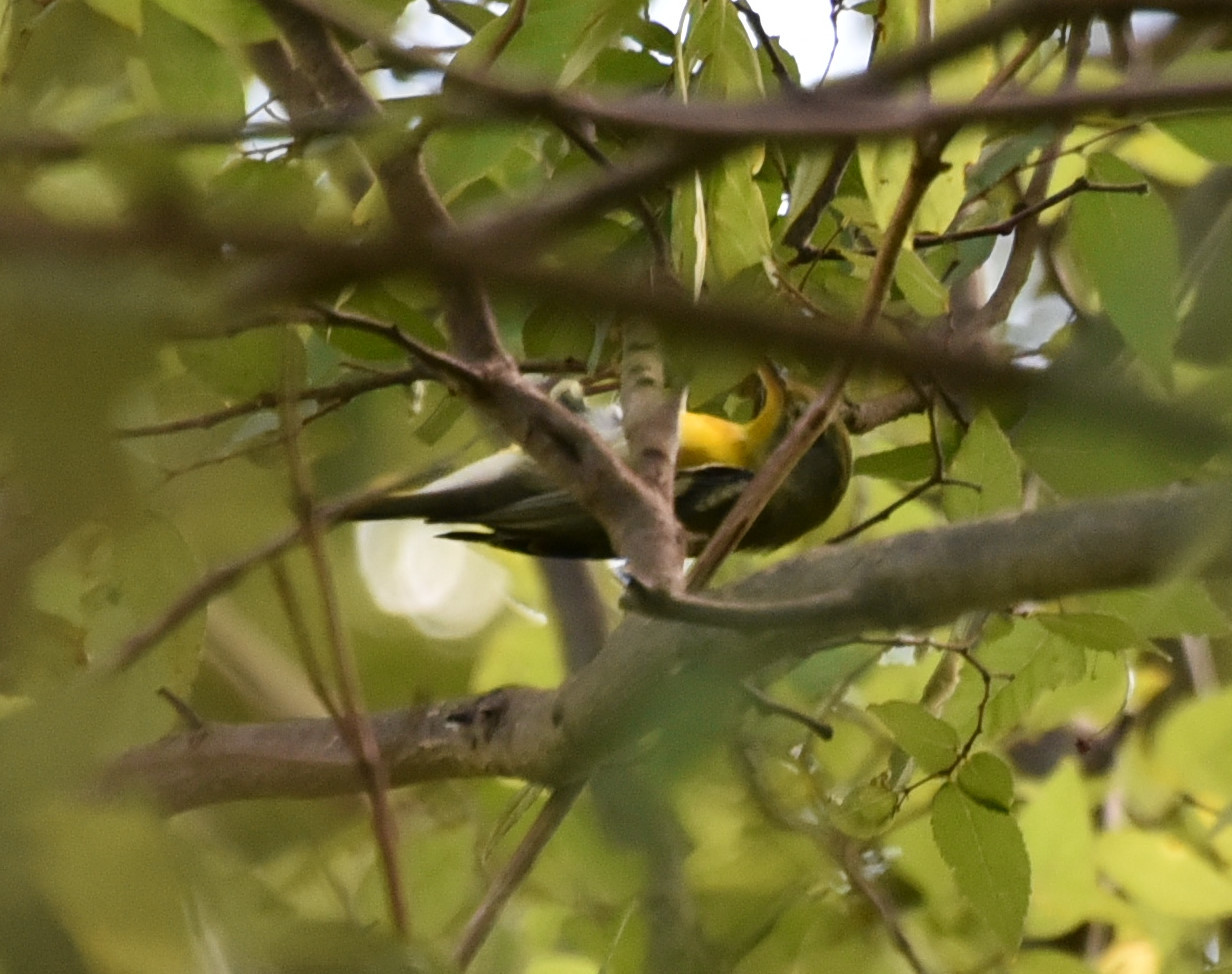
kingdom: Animalia
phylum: Chordata
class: Aves
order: Passeriformes
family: Parulidae
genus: Setophaga
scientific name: Setophaga americana
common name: Northern parula
